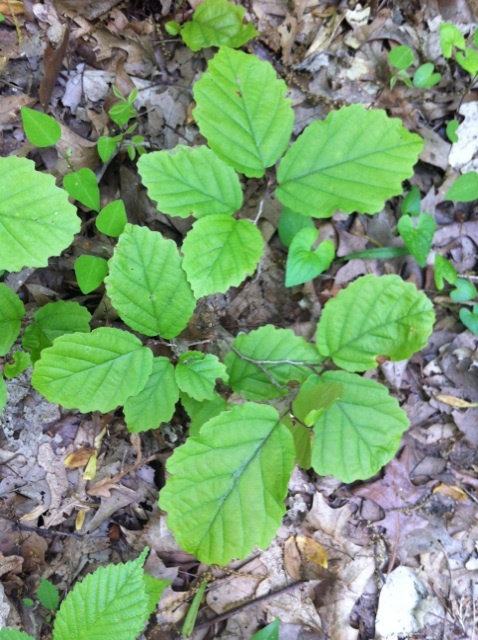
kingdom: Plantae
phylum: Tracheophyta
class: Magnoliopsida
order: Saxifragales
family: Hamamelidaceae
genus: Hamamelis
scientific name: Hamamelis virginiana
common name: Witch-hazel
